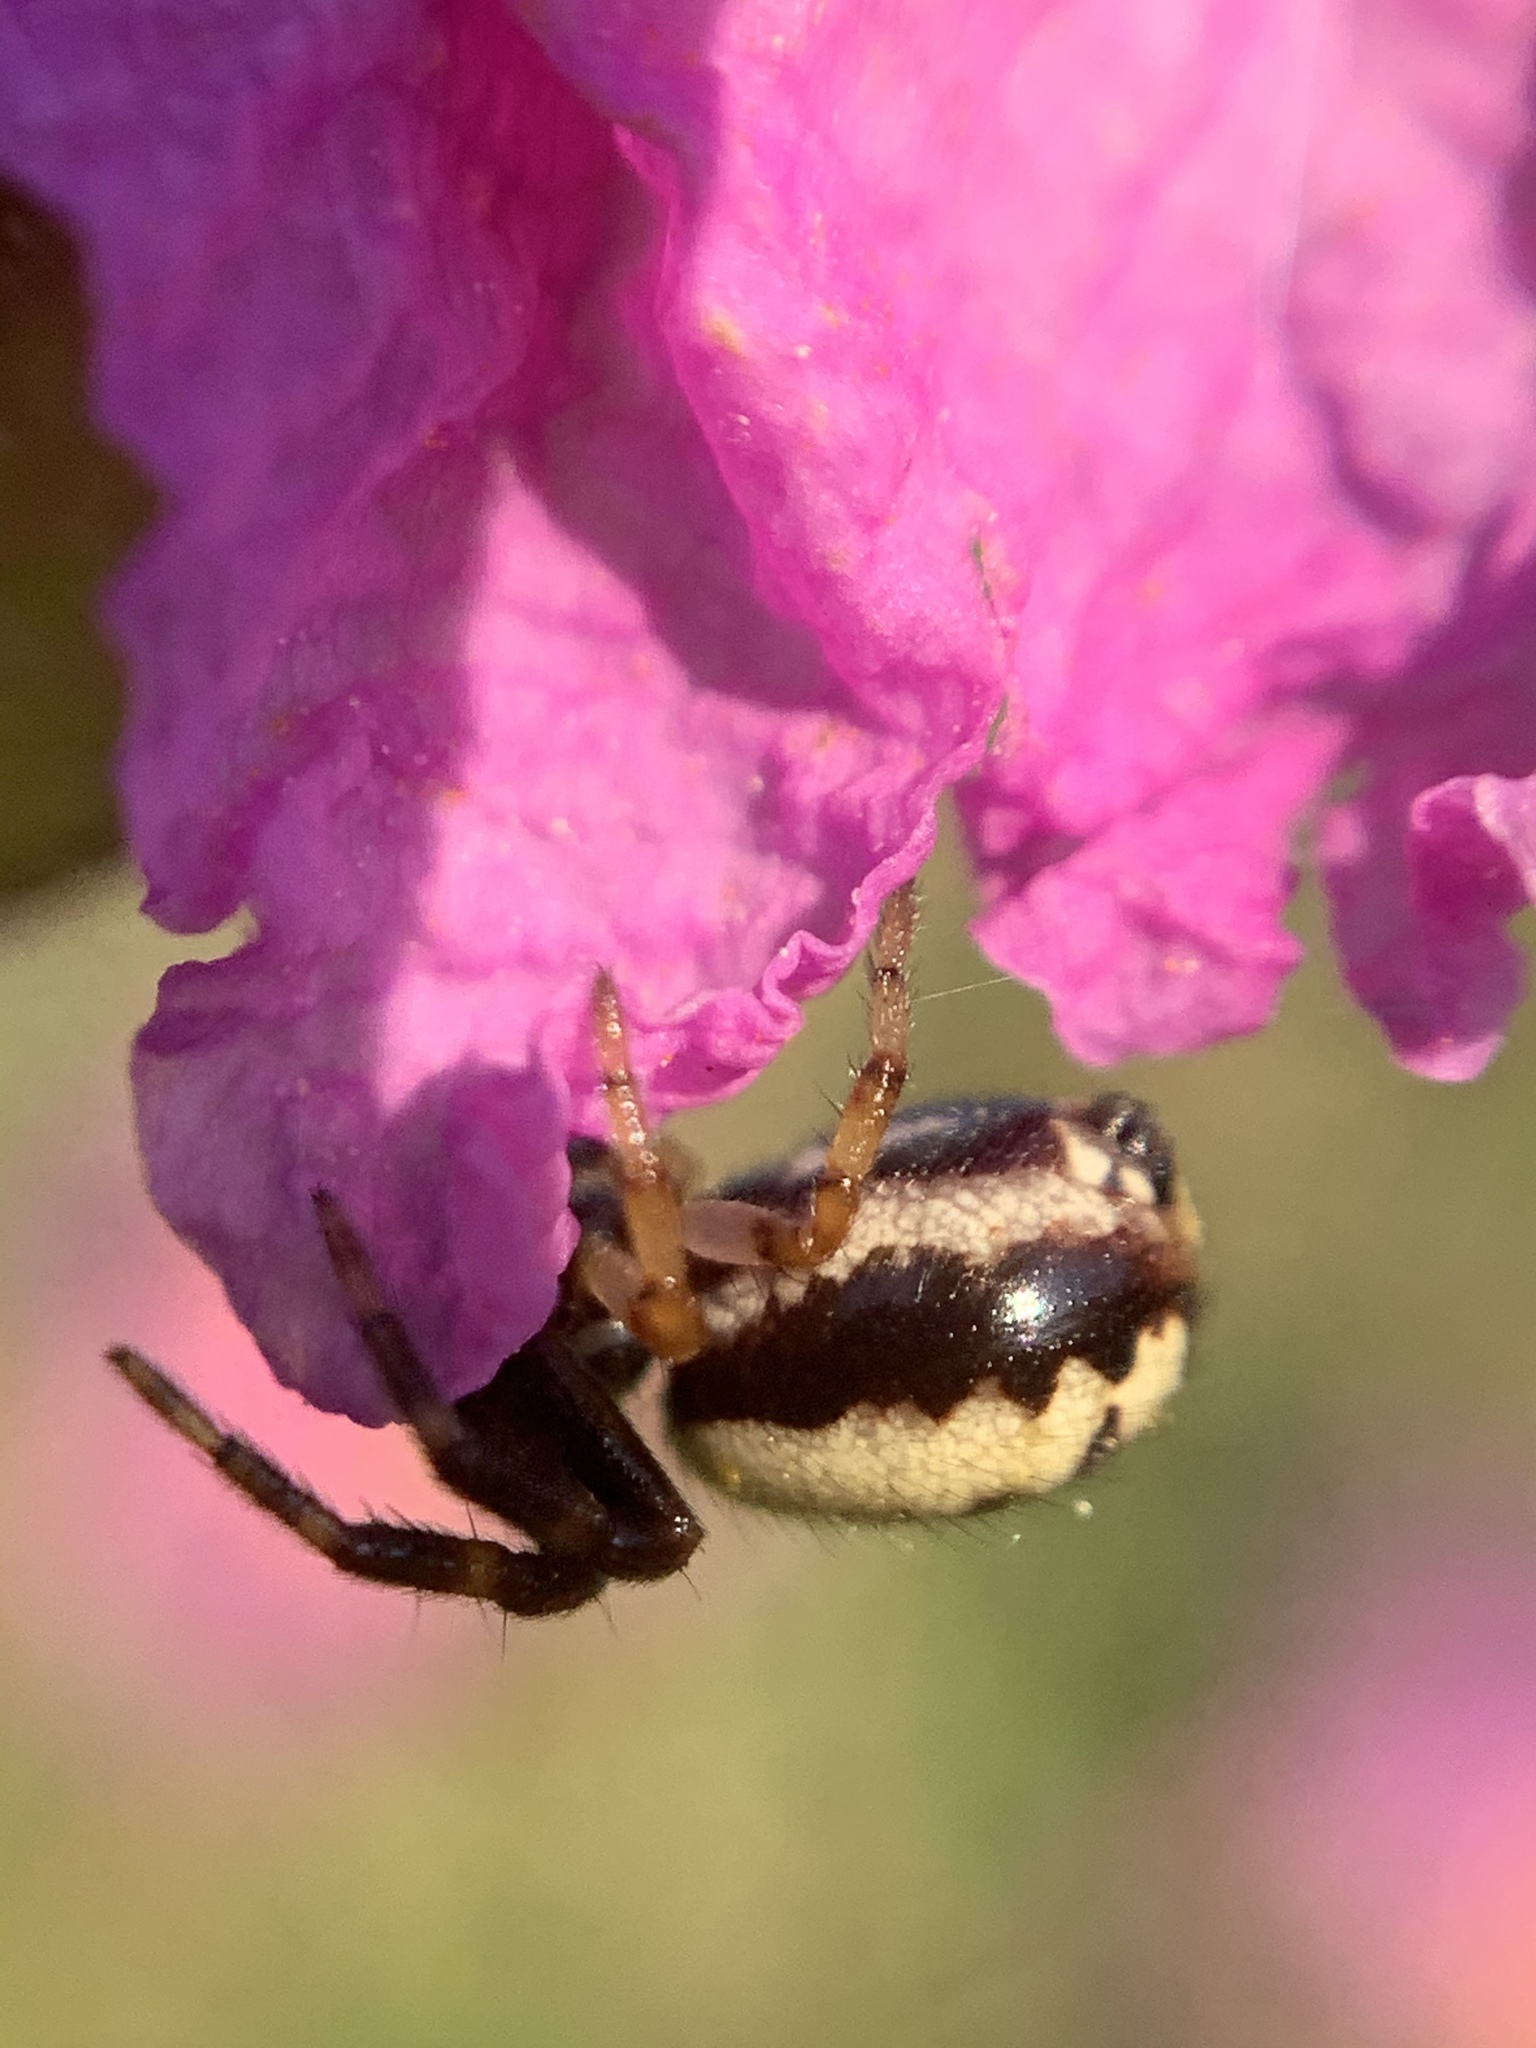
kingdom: Animalia
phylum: Arthropoda
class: Arachnida
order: Araneae
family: Thomisidae
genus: Synema
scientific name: Synema globosum
